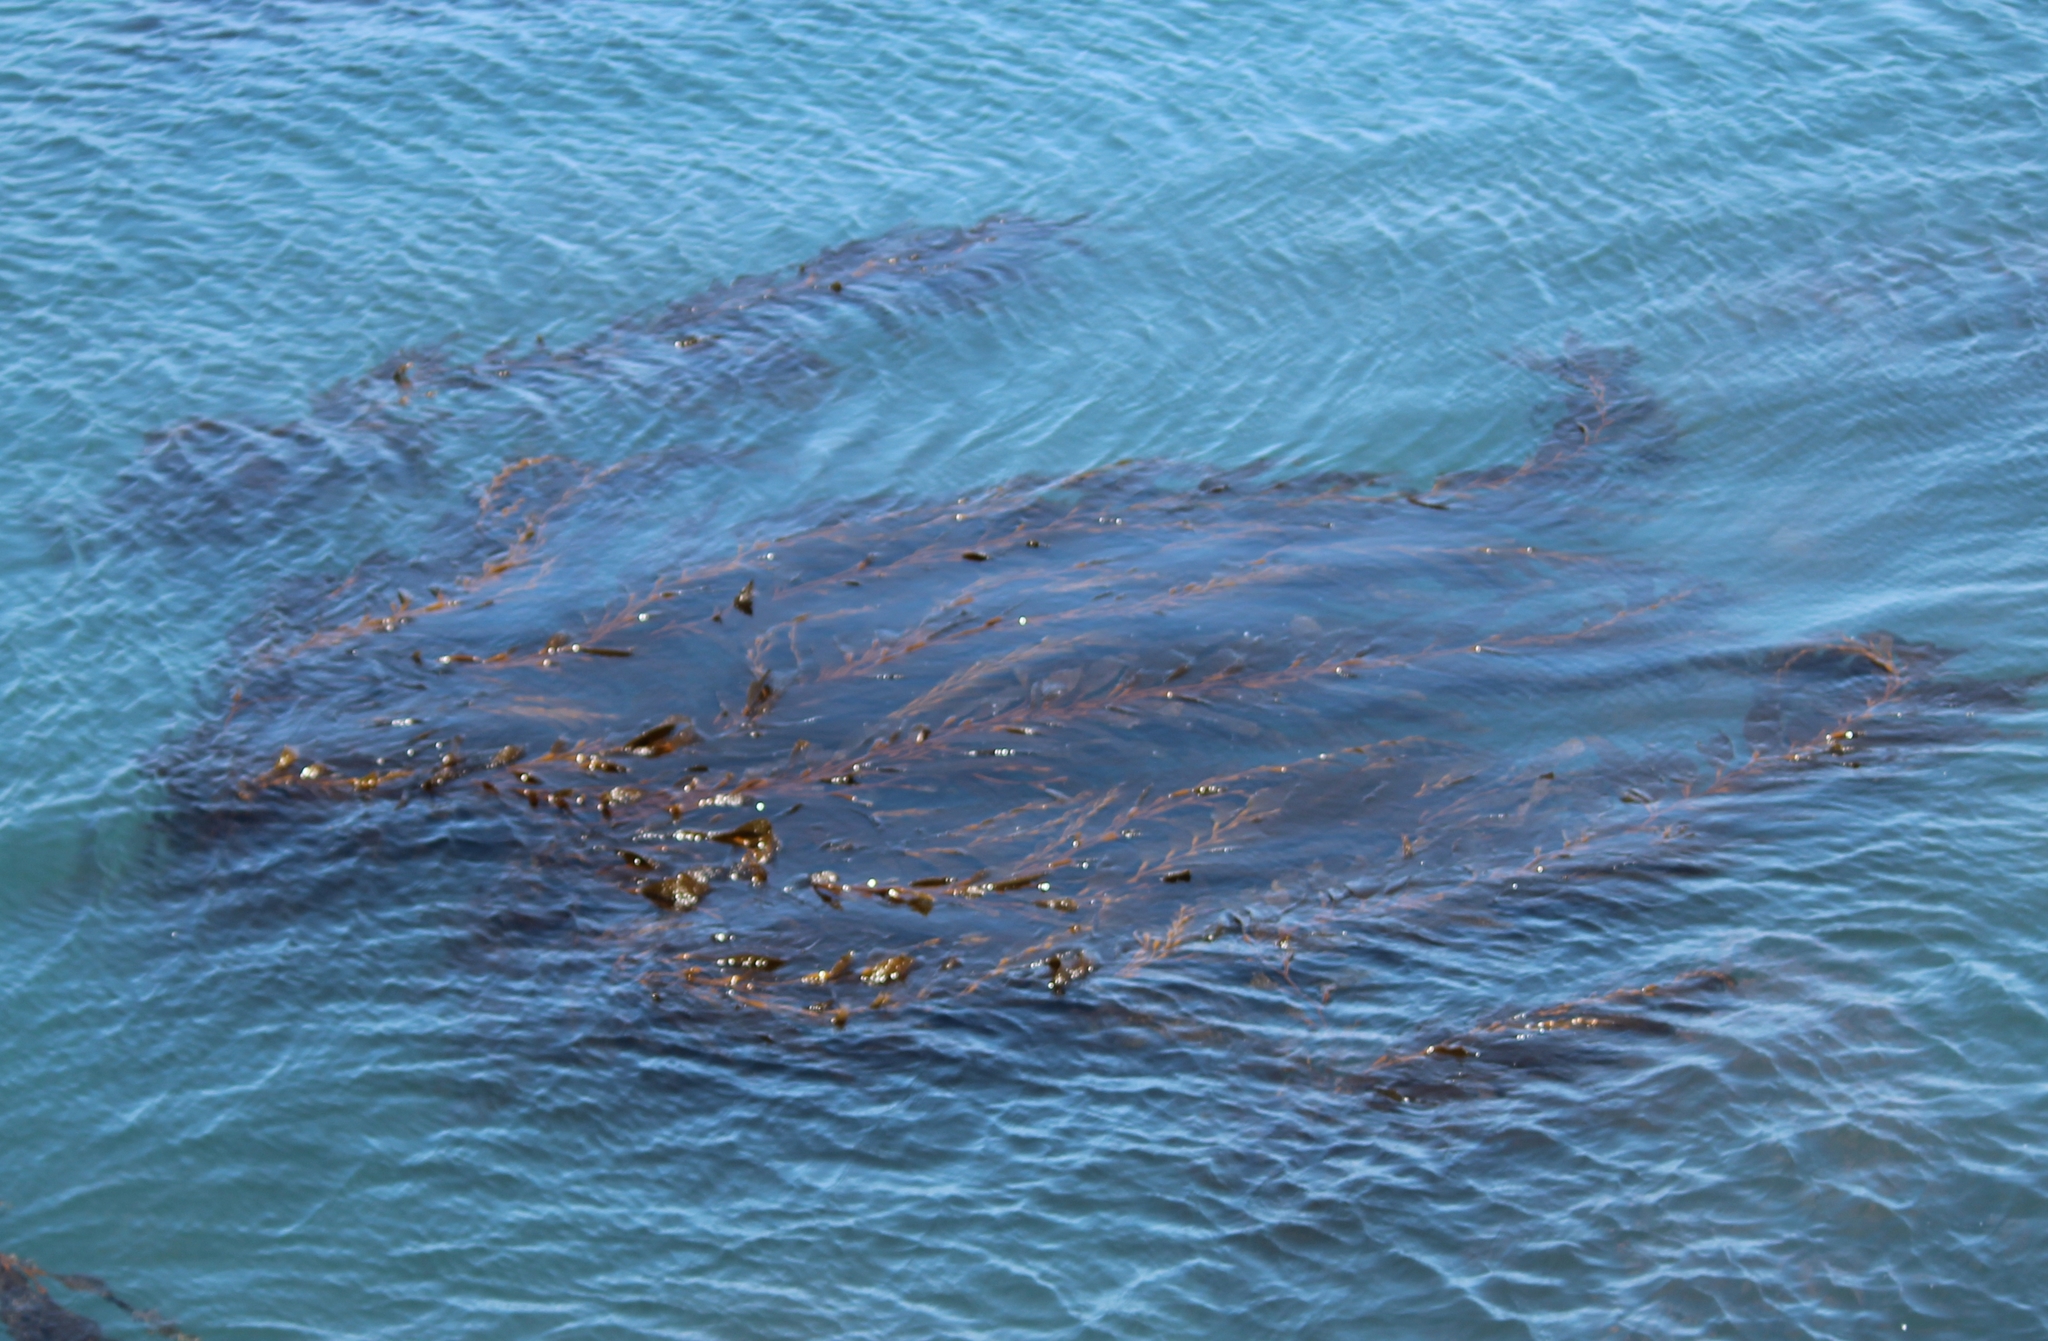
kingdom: Chromista
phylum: Ochrophyta
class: Phaeophyceae
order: Laminariales
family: Laminariaceae
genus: Macrocystis
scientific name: Macrocystis pyrifera
